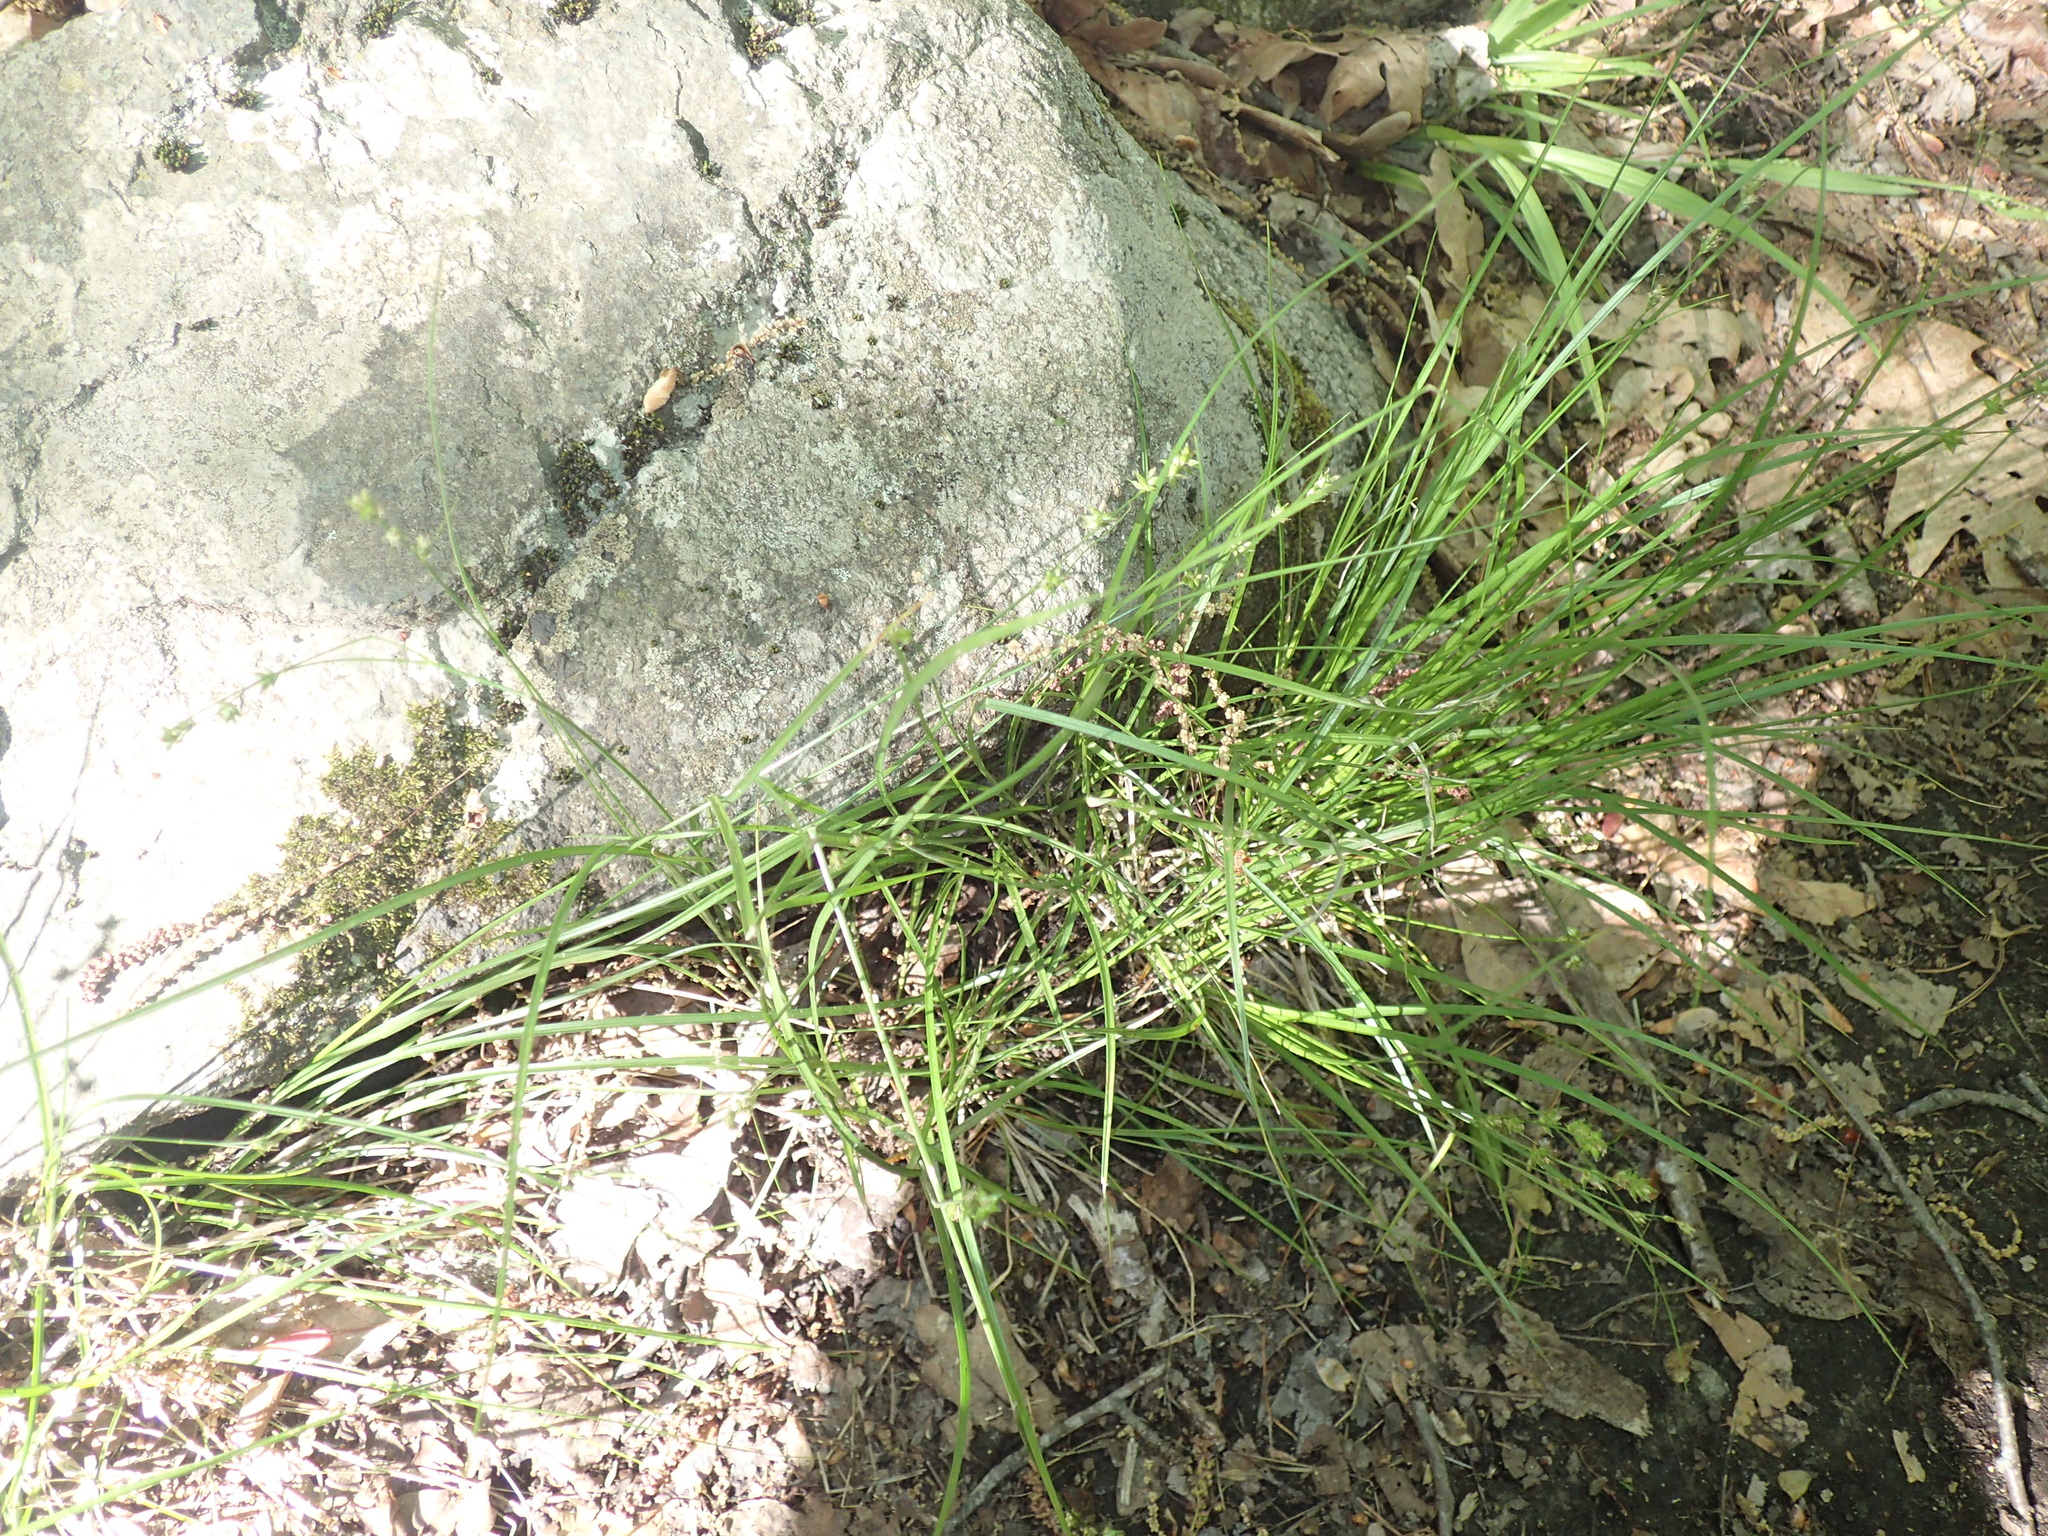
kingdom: Plantae
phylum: Tracheophyta
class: Liliopsida
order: Poales
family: Cyperaceae
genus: Carex
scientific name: Carex rosea
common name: Curly-styled wood sedge
